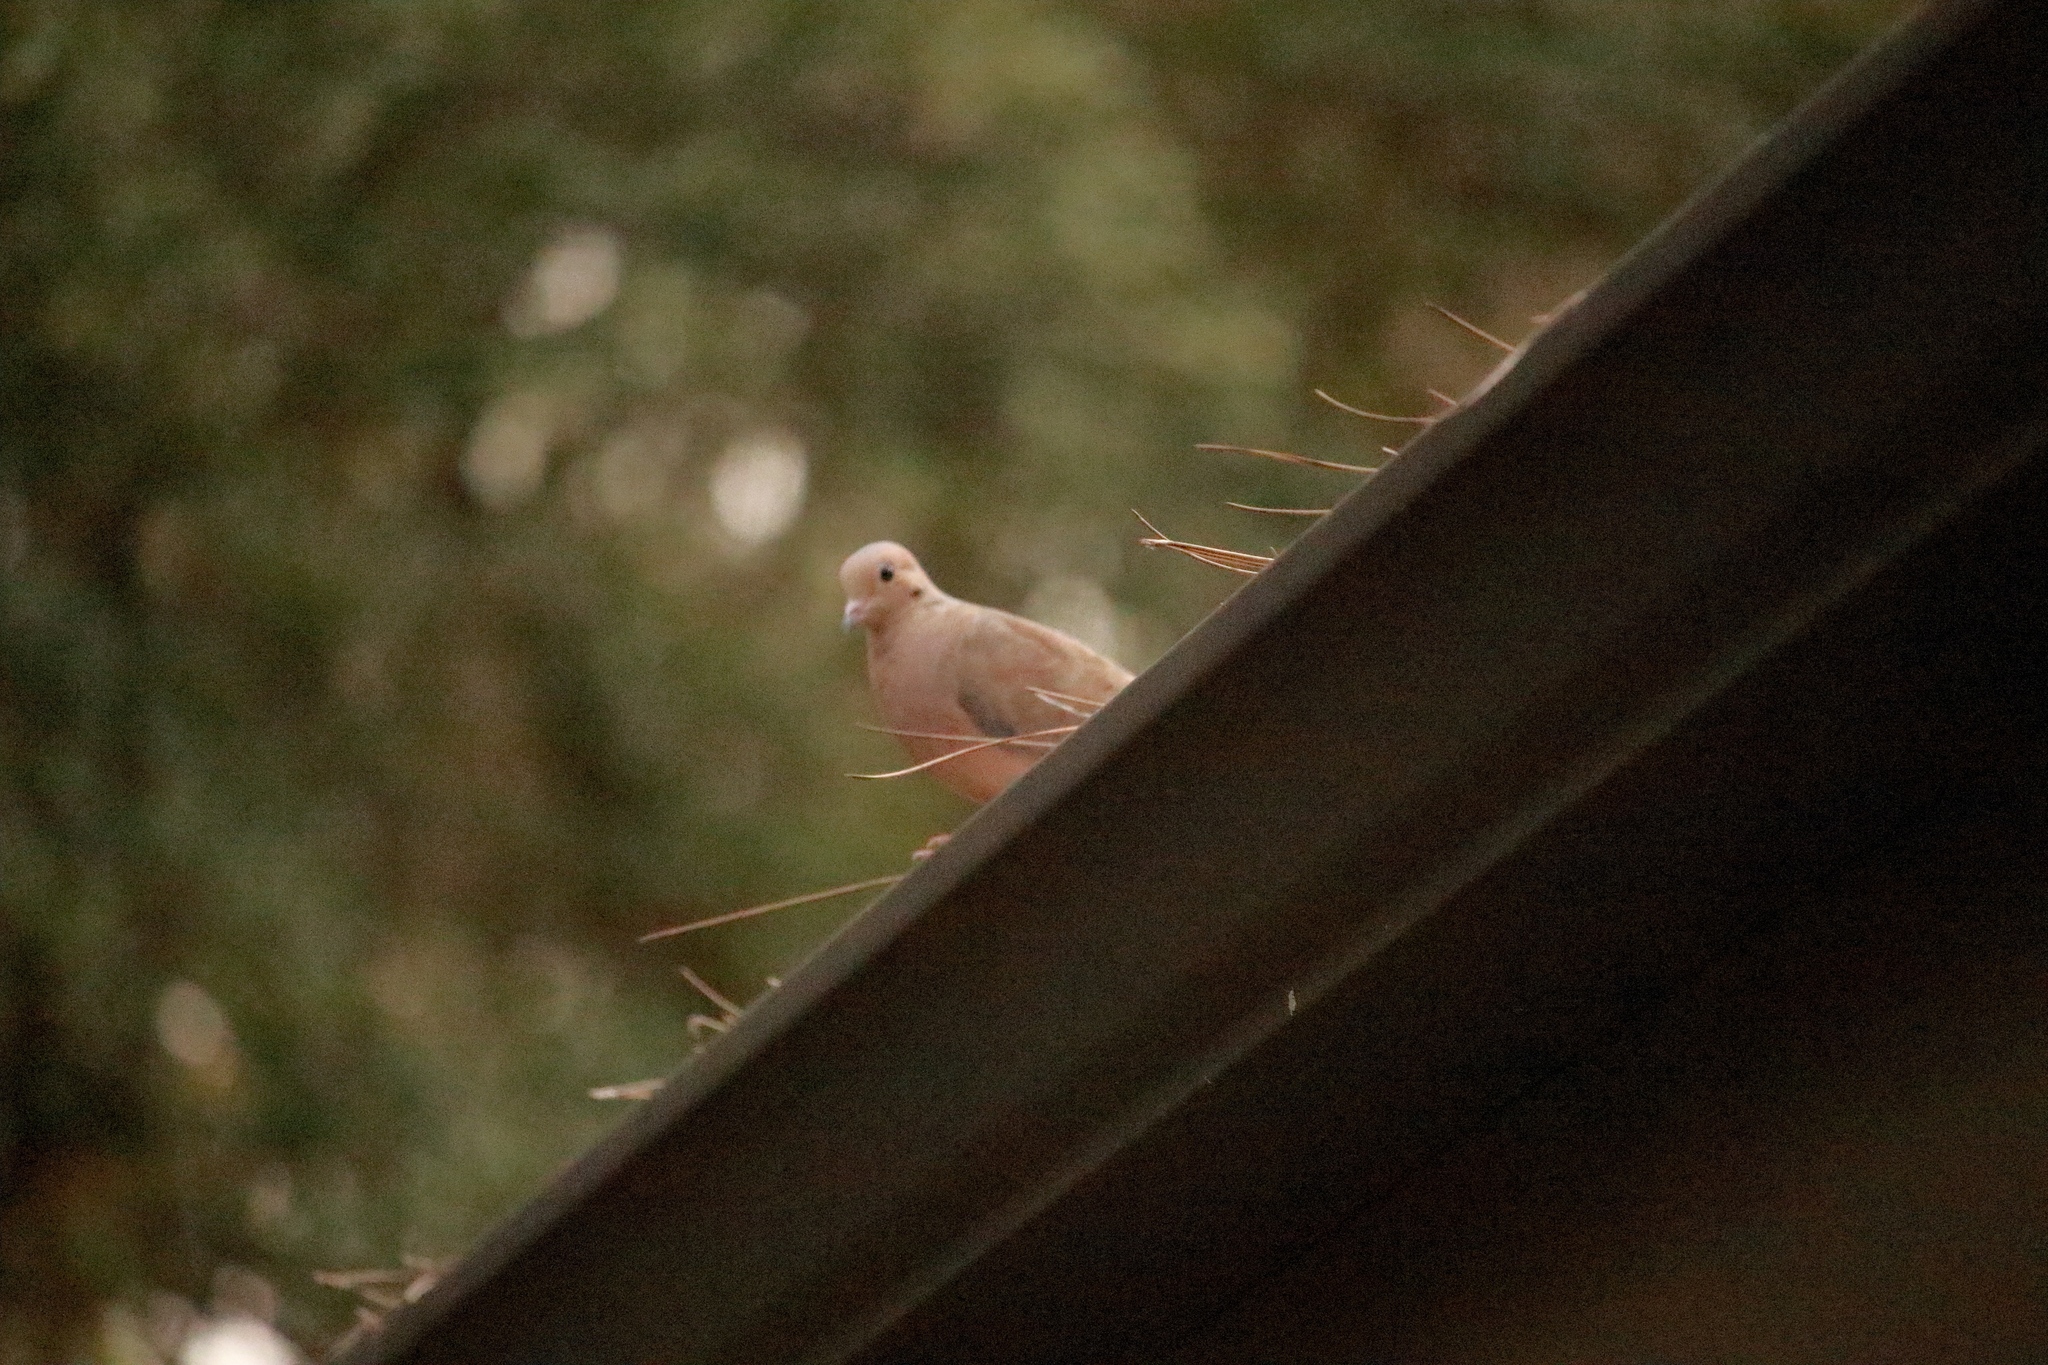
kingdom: Animalia
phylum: Chordata
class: Aves
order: Columbiformes
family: Columbidae
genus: Zenaida
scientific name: Zenaida macroura
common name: Mourning dove
